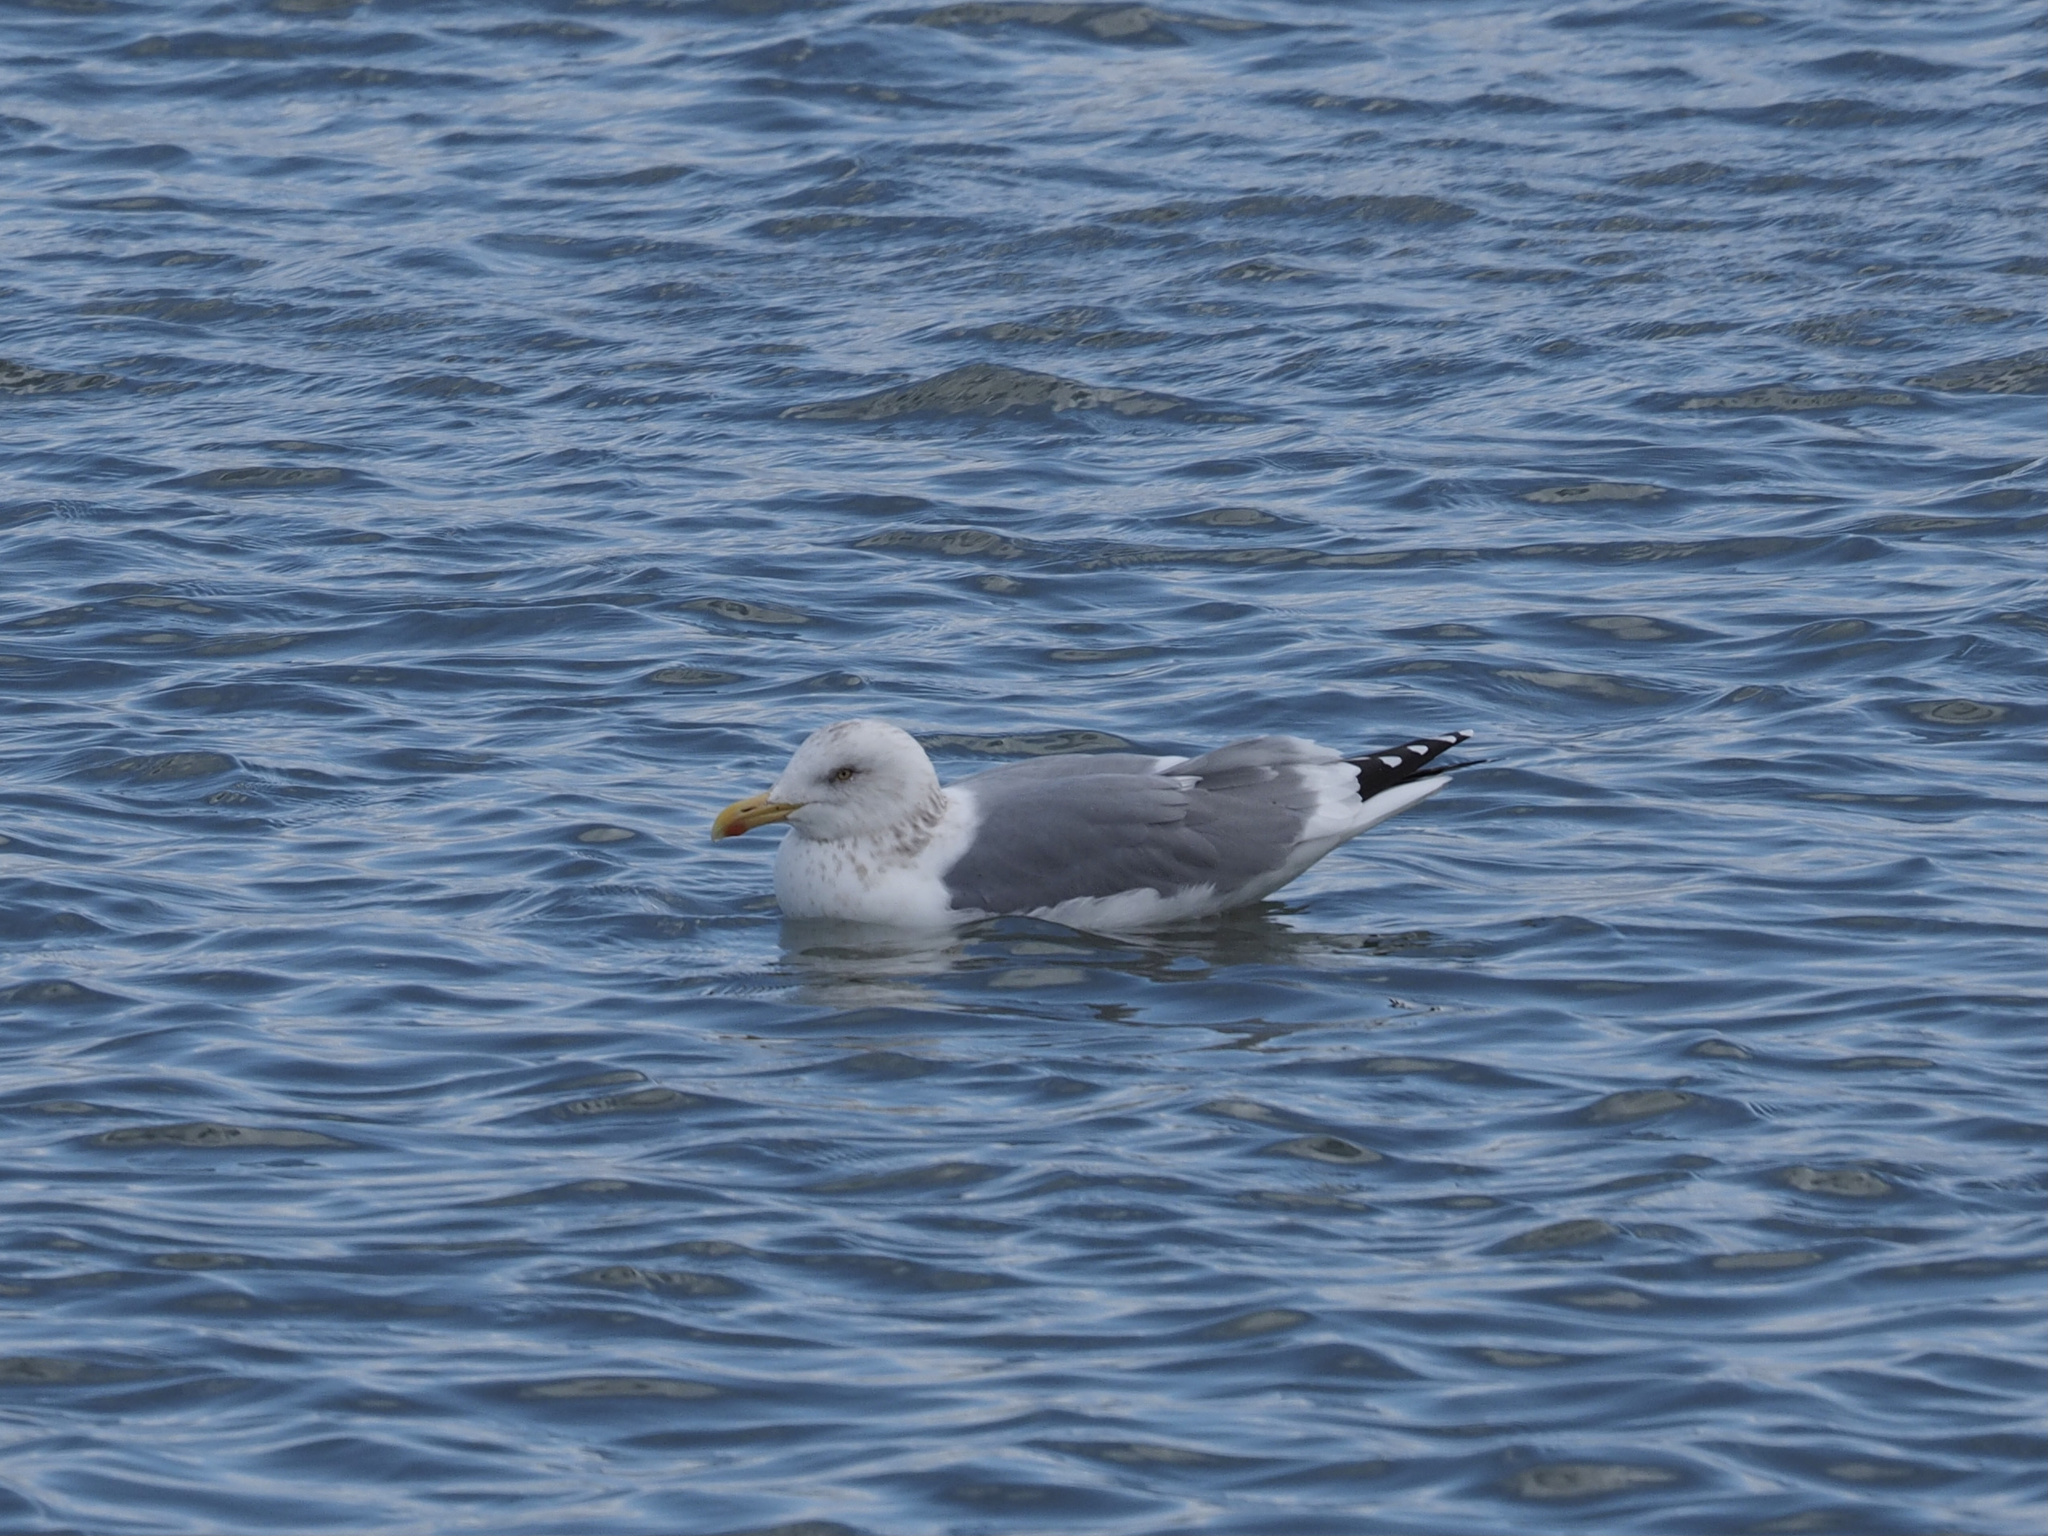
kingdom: Animalia
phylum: Chordata
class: Aves
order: Charadriiformes
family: Laridae
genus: Larus
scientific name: Larus argentatus
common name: Herring gull
